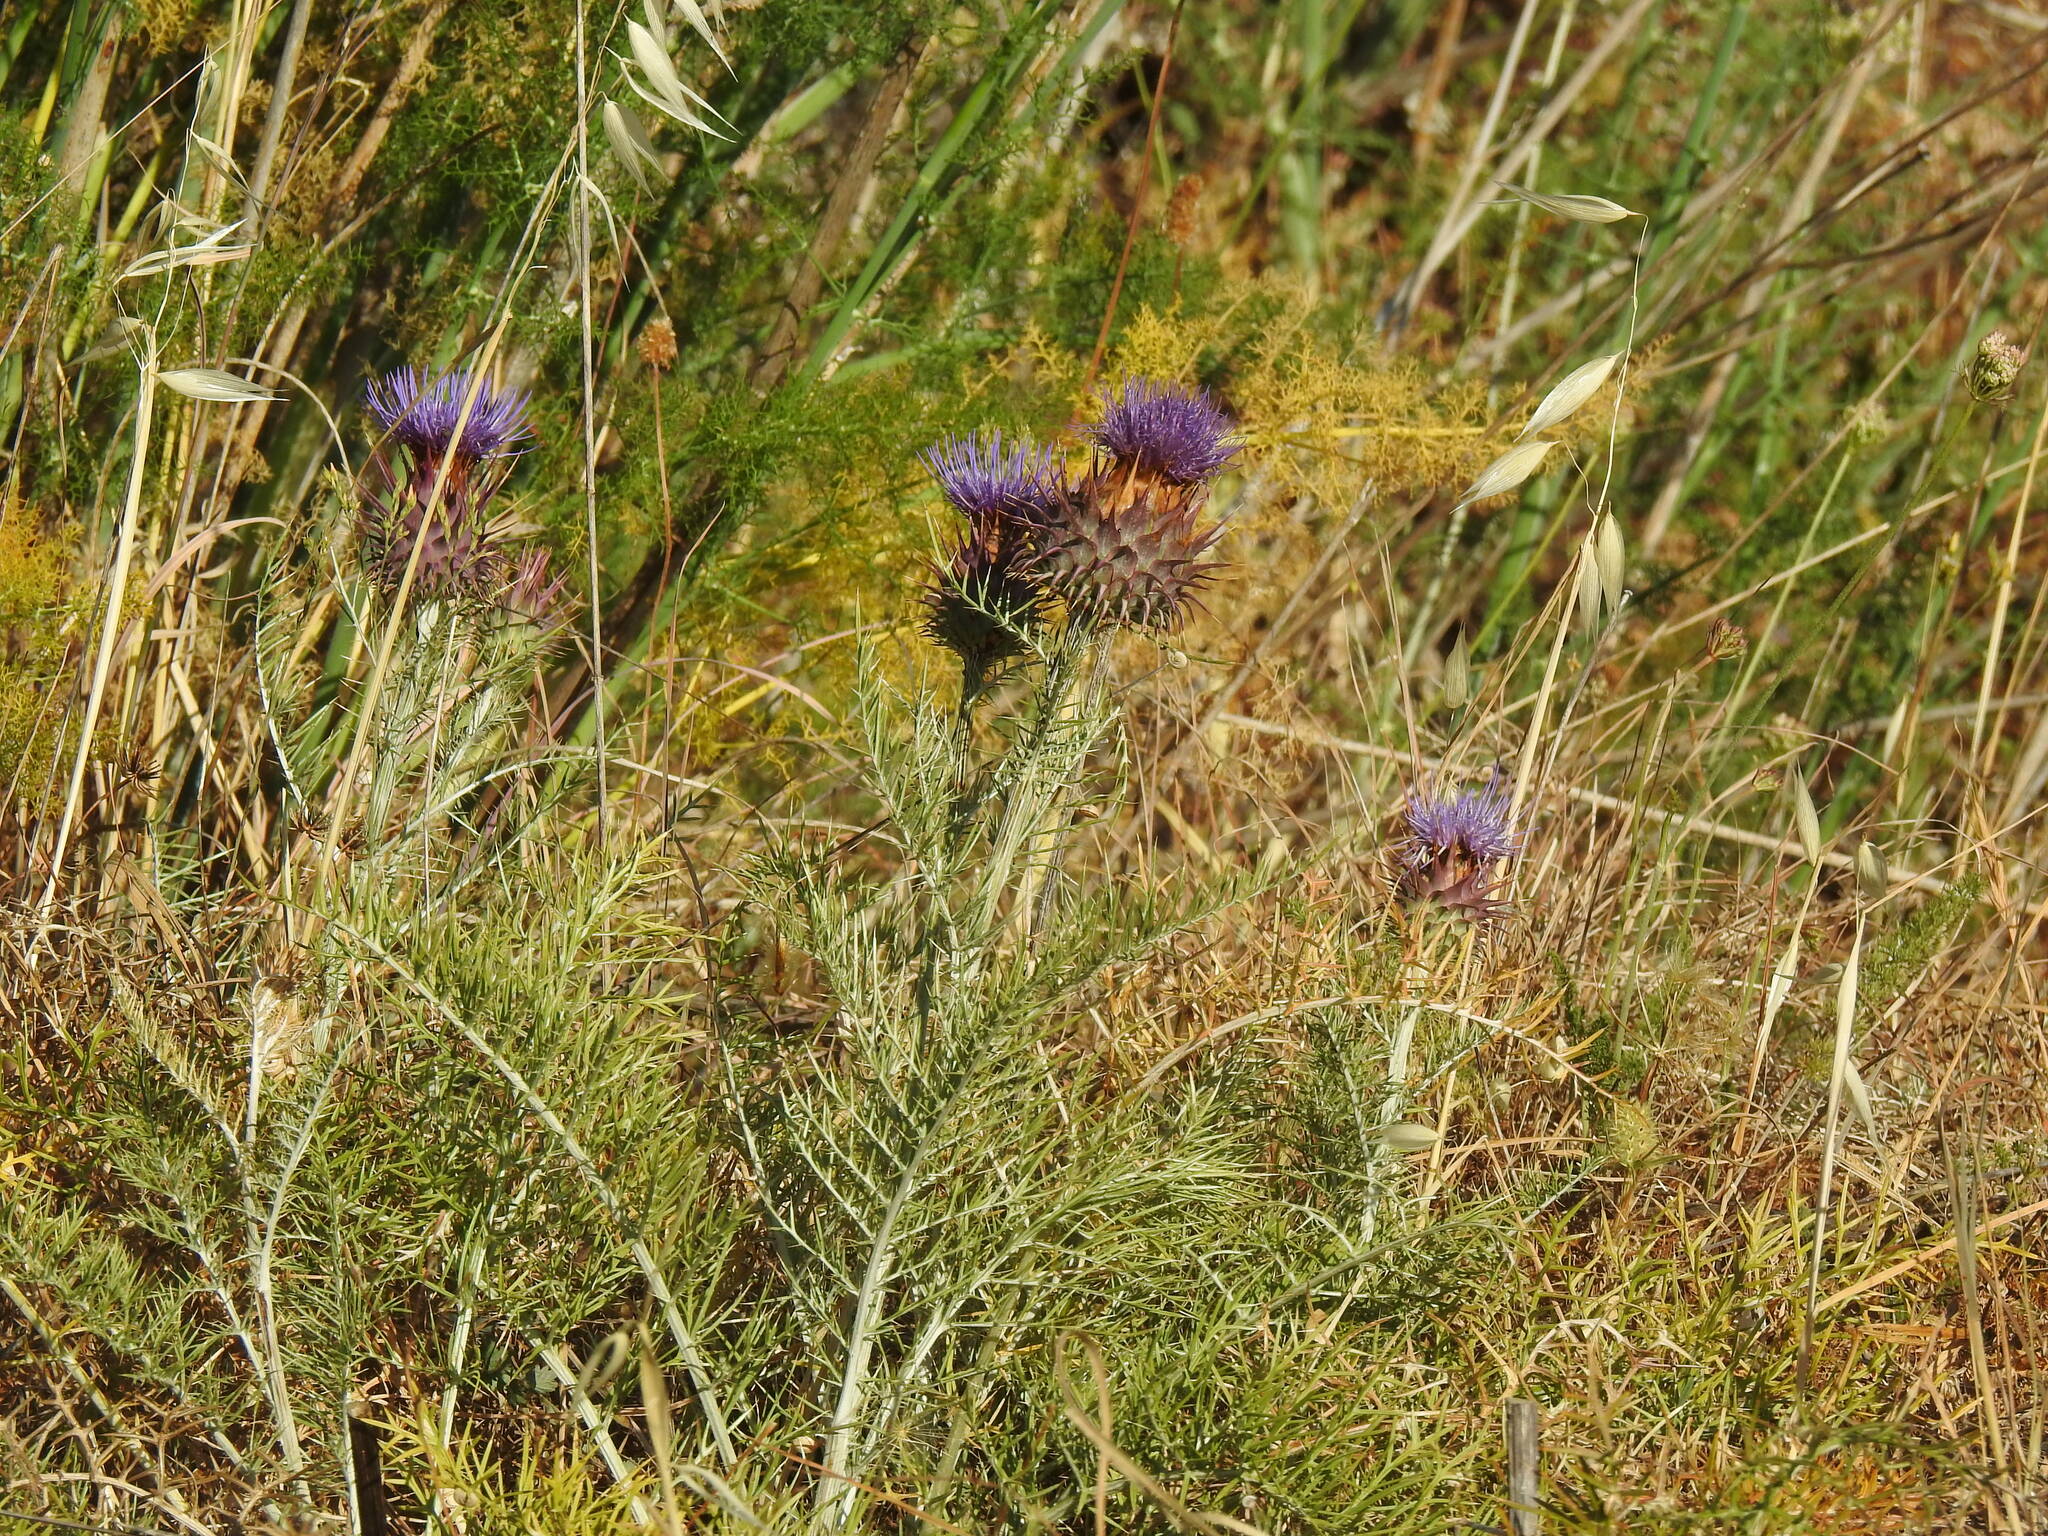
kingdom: Plantae
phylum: Tracheophyta
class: Magnoliopsida
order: Asterales
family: Asteraceae
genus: Cynara
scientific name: Cynara humilis
